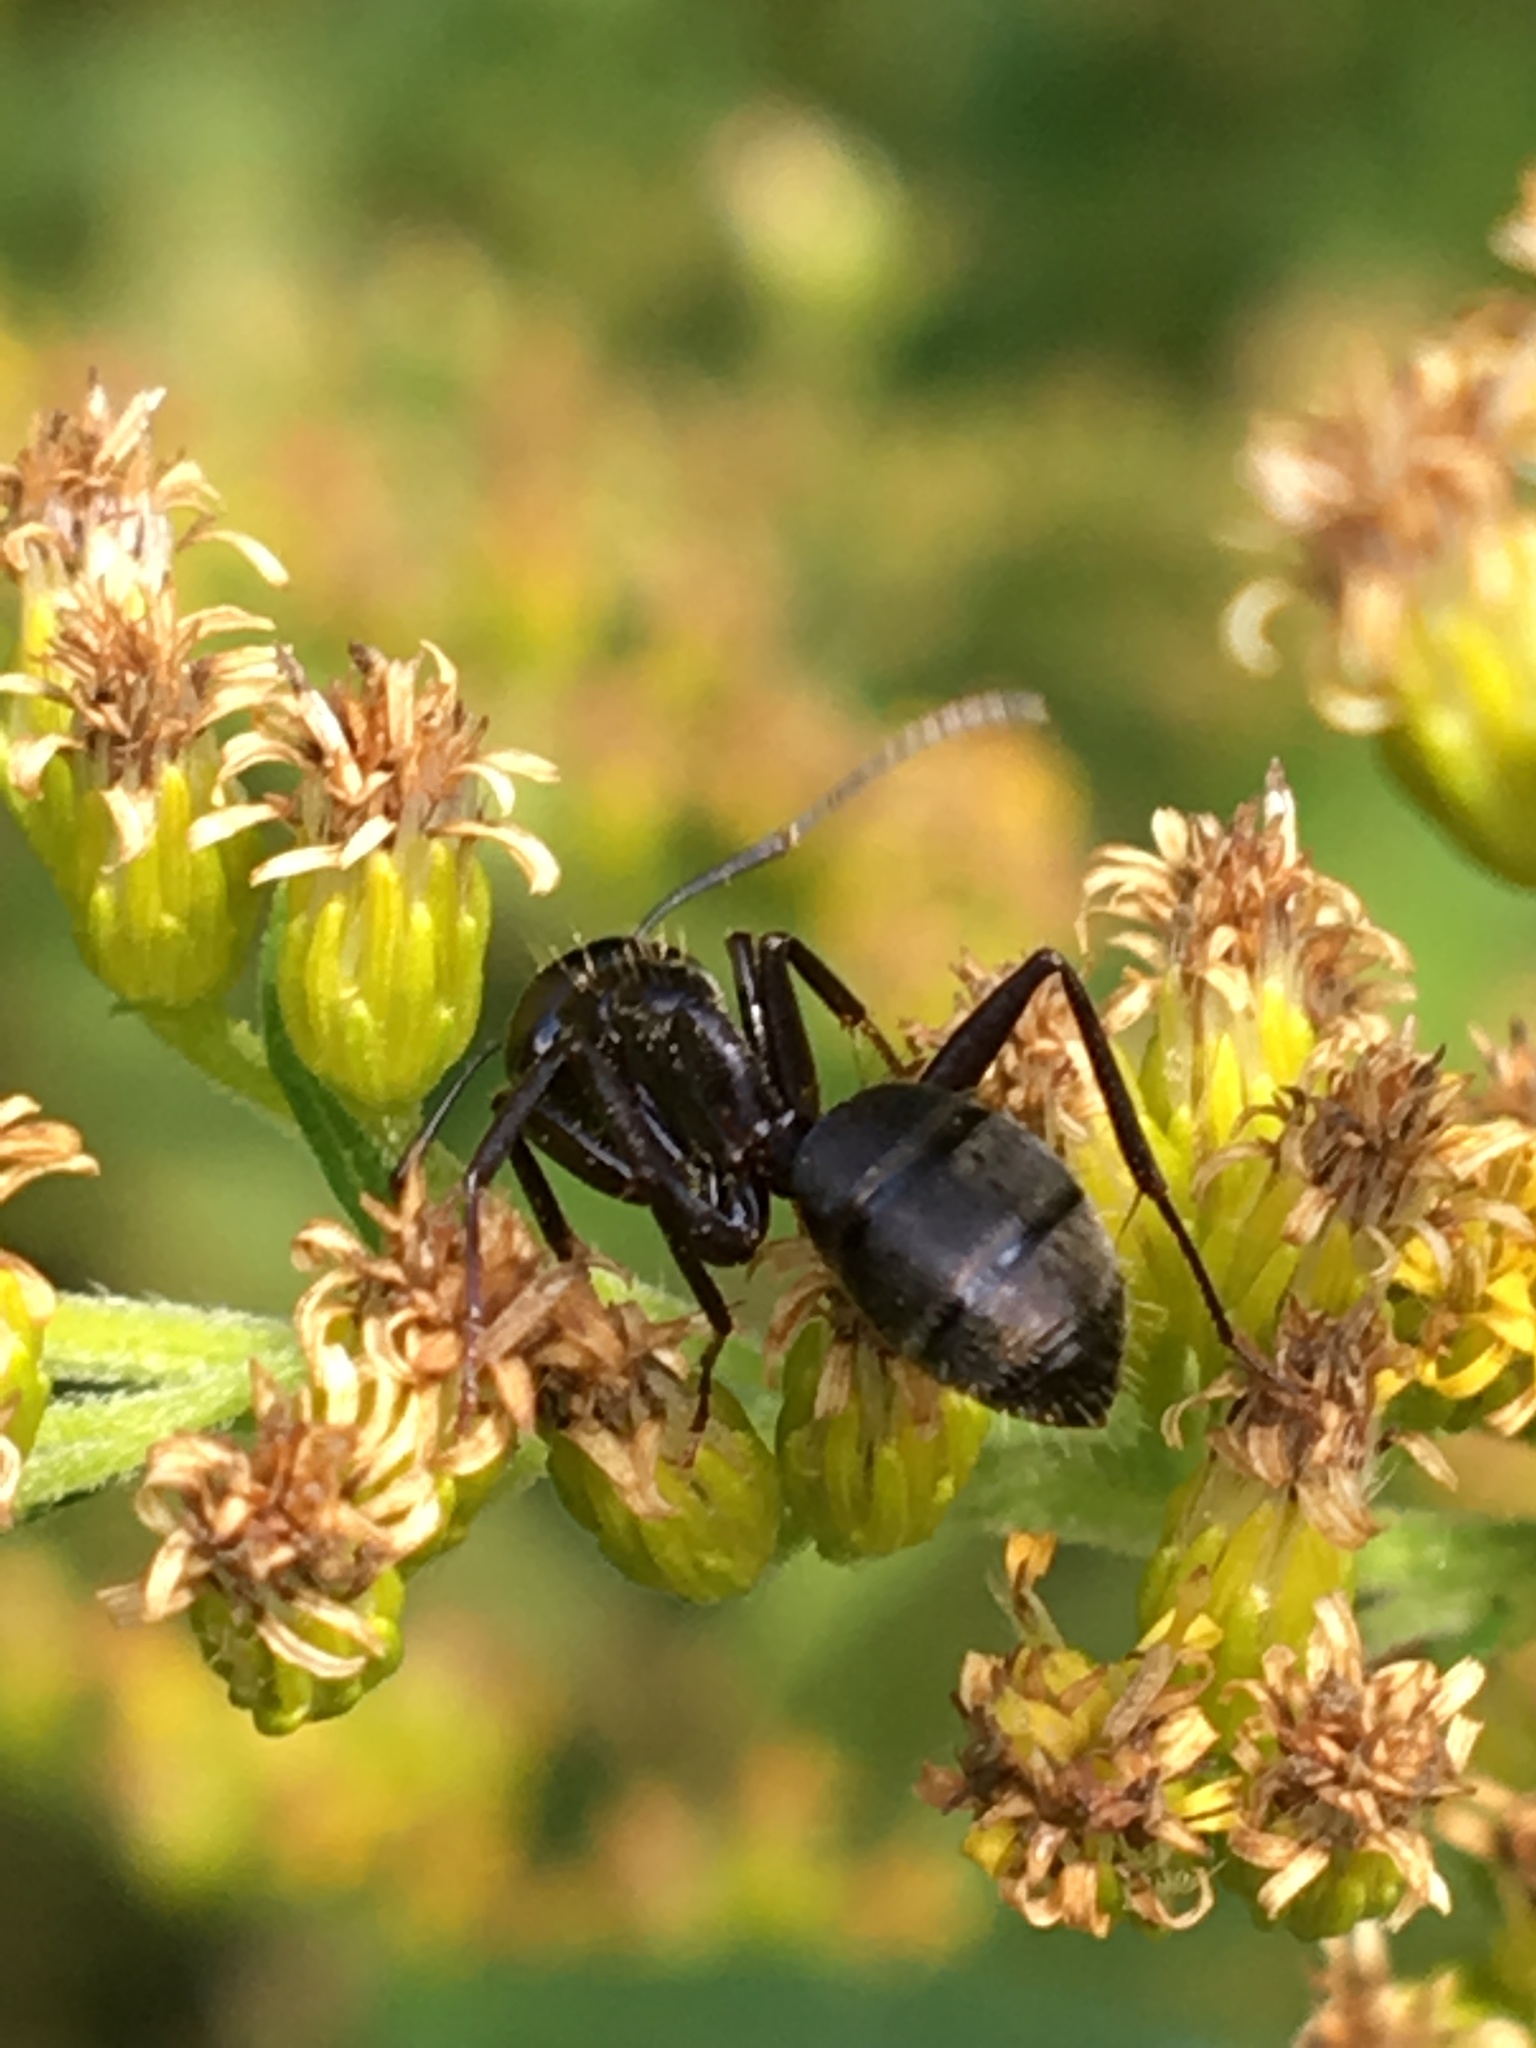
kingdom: Animalia
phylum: Arthropoda
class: Insecta
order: Hymenoptera
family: Formicidae
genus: Camponotus
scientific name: Camponotus pennsylvanicus
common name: Black carpenter ant
